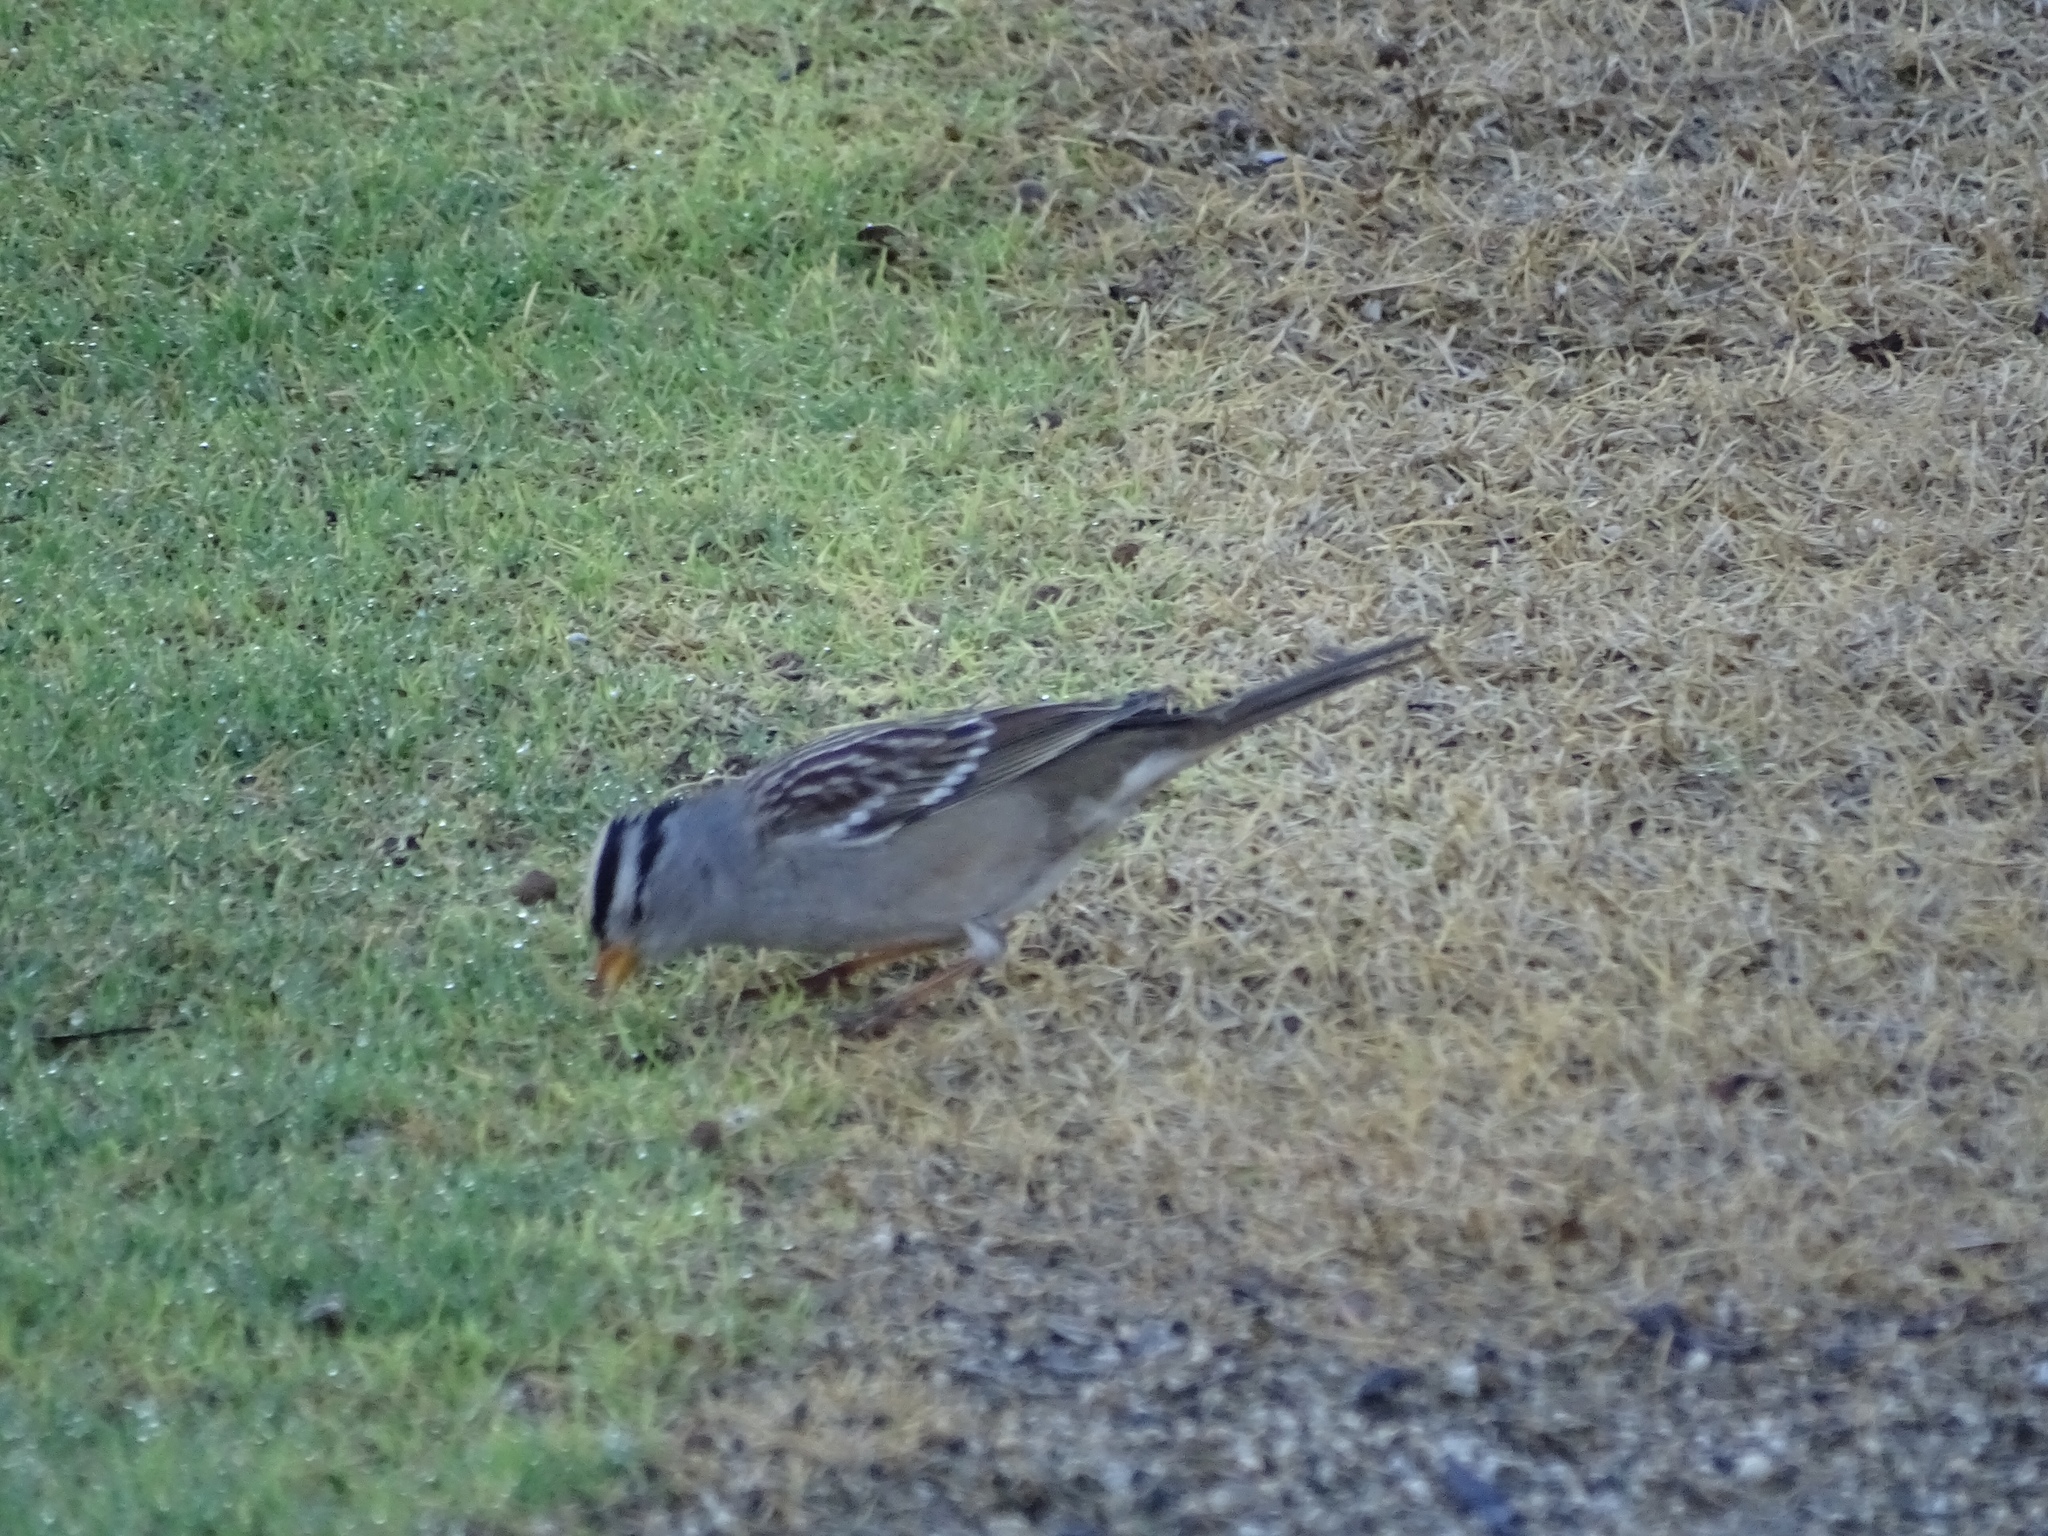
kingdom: Animalia
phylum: Chordata
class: Aves
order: Passeriformes
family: Passerellidae
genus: Zonotrichia
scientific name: Zonotrichia leucophrys
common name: White-crowned sparrow
